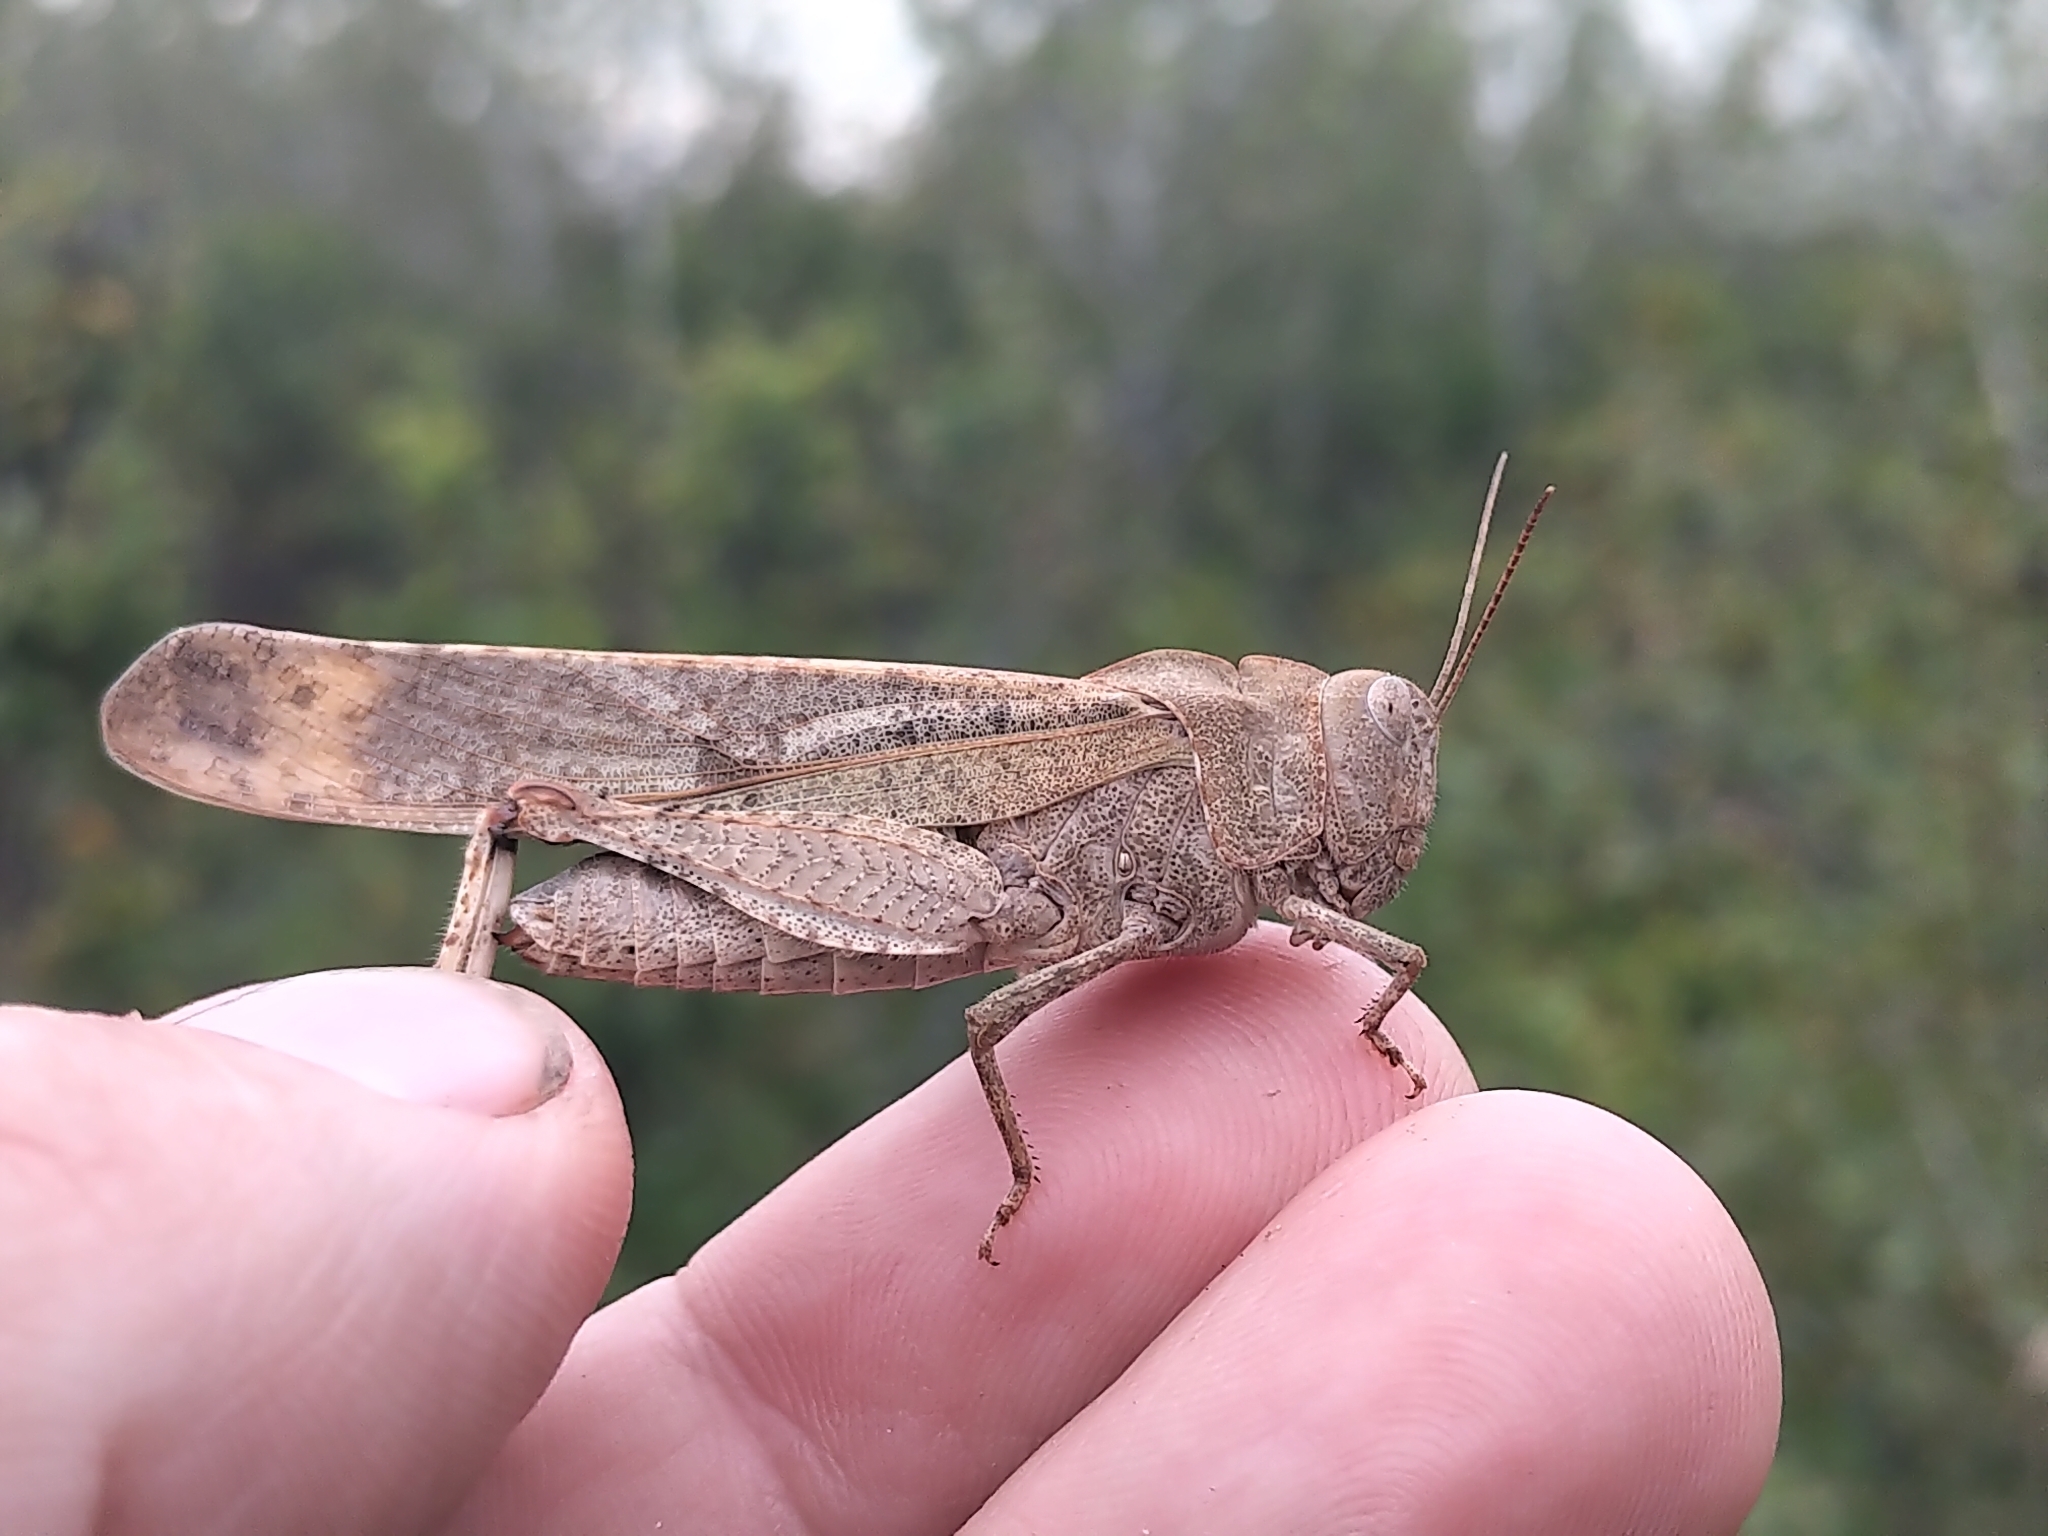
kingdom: Animalia
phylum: Arthropoda
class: Insecta
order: Orthoptera
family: Acrididae
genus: Dissosteira
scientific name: Dissosteira carolina
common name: Carolina grasshopper
